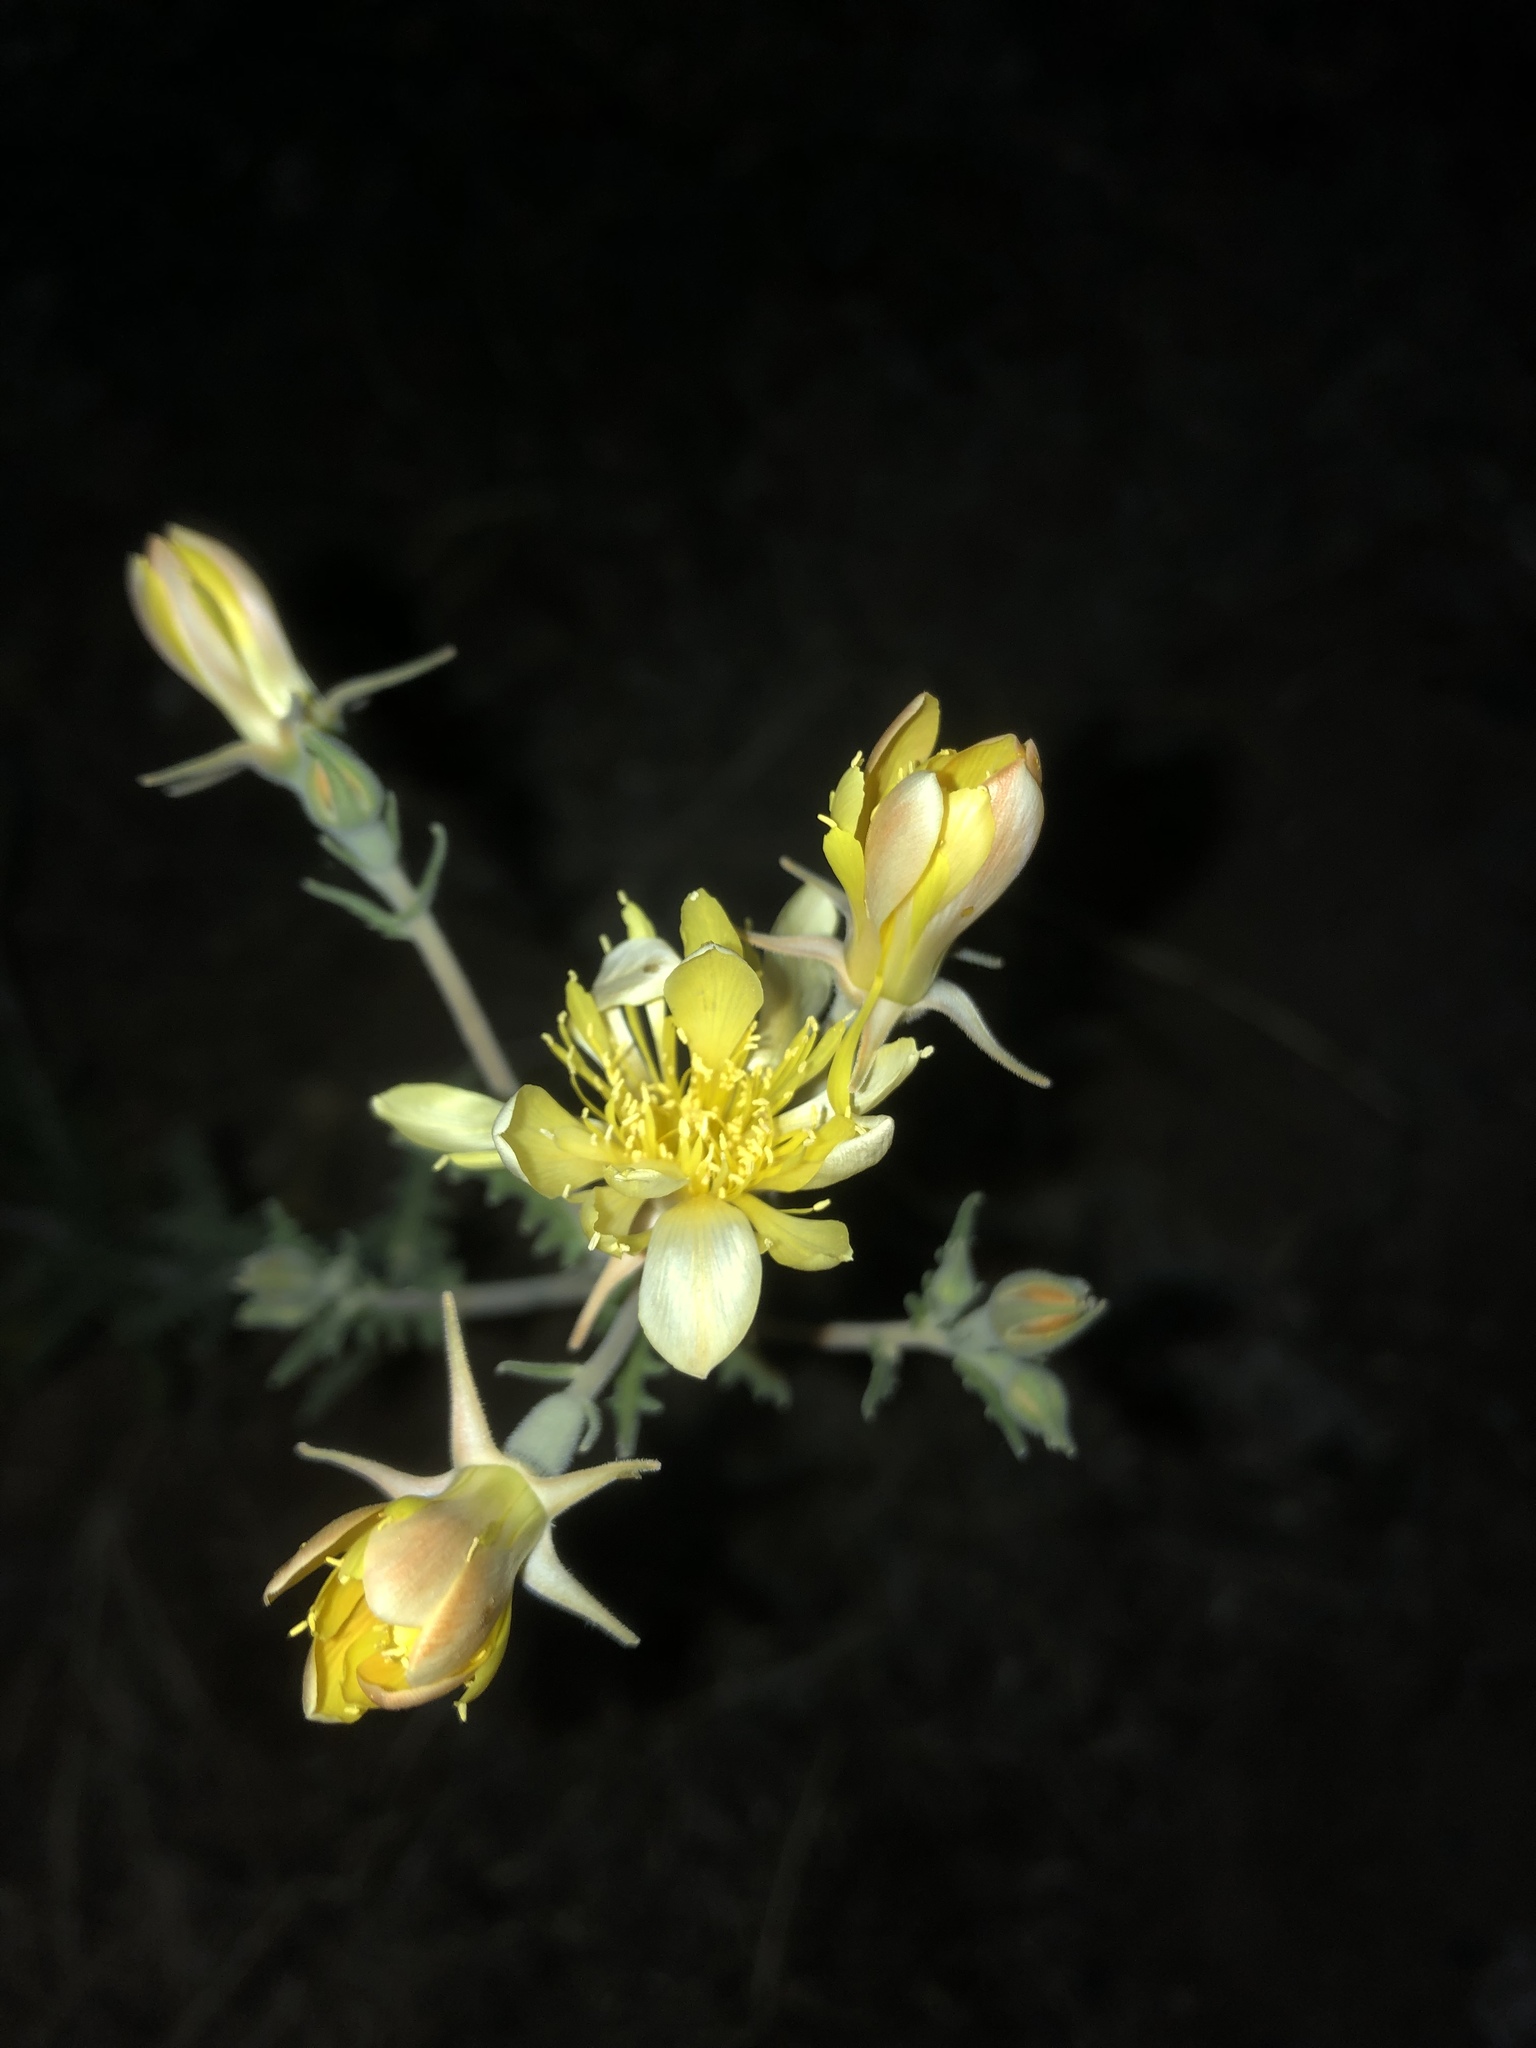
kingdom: Plantae
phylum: Tracheophyta
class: Magnoliopsida
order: Cornales
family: Loasaceae
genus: Mentzelia
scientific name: Mentzelia longiloba
